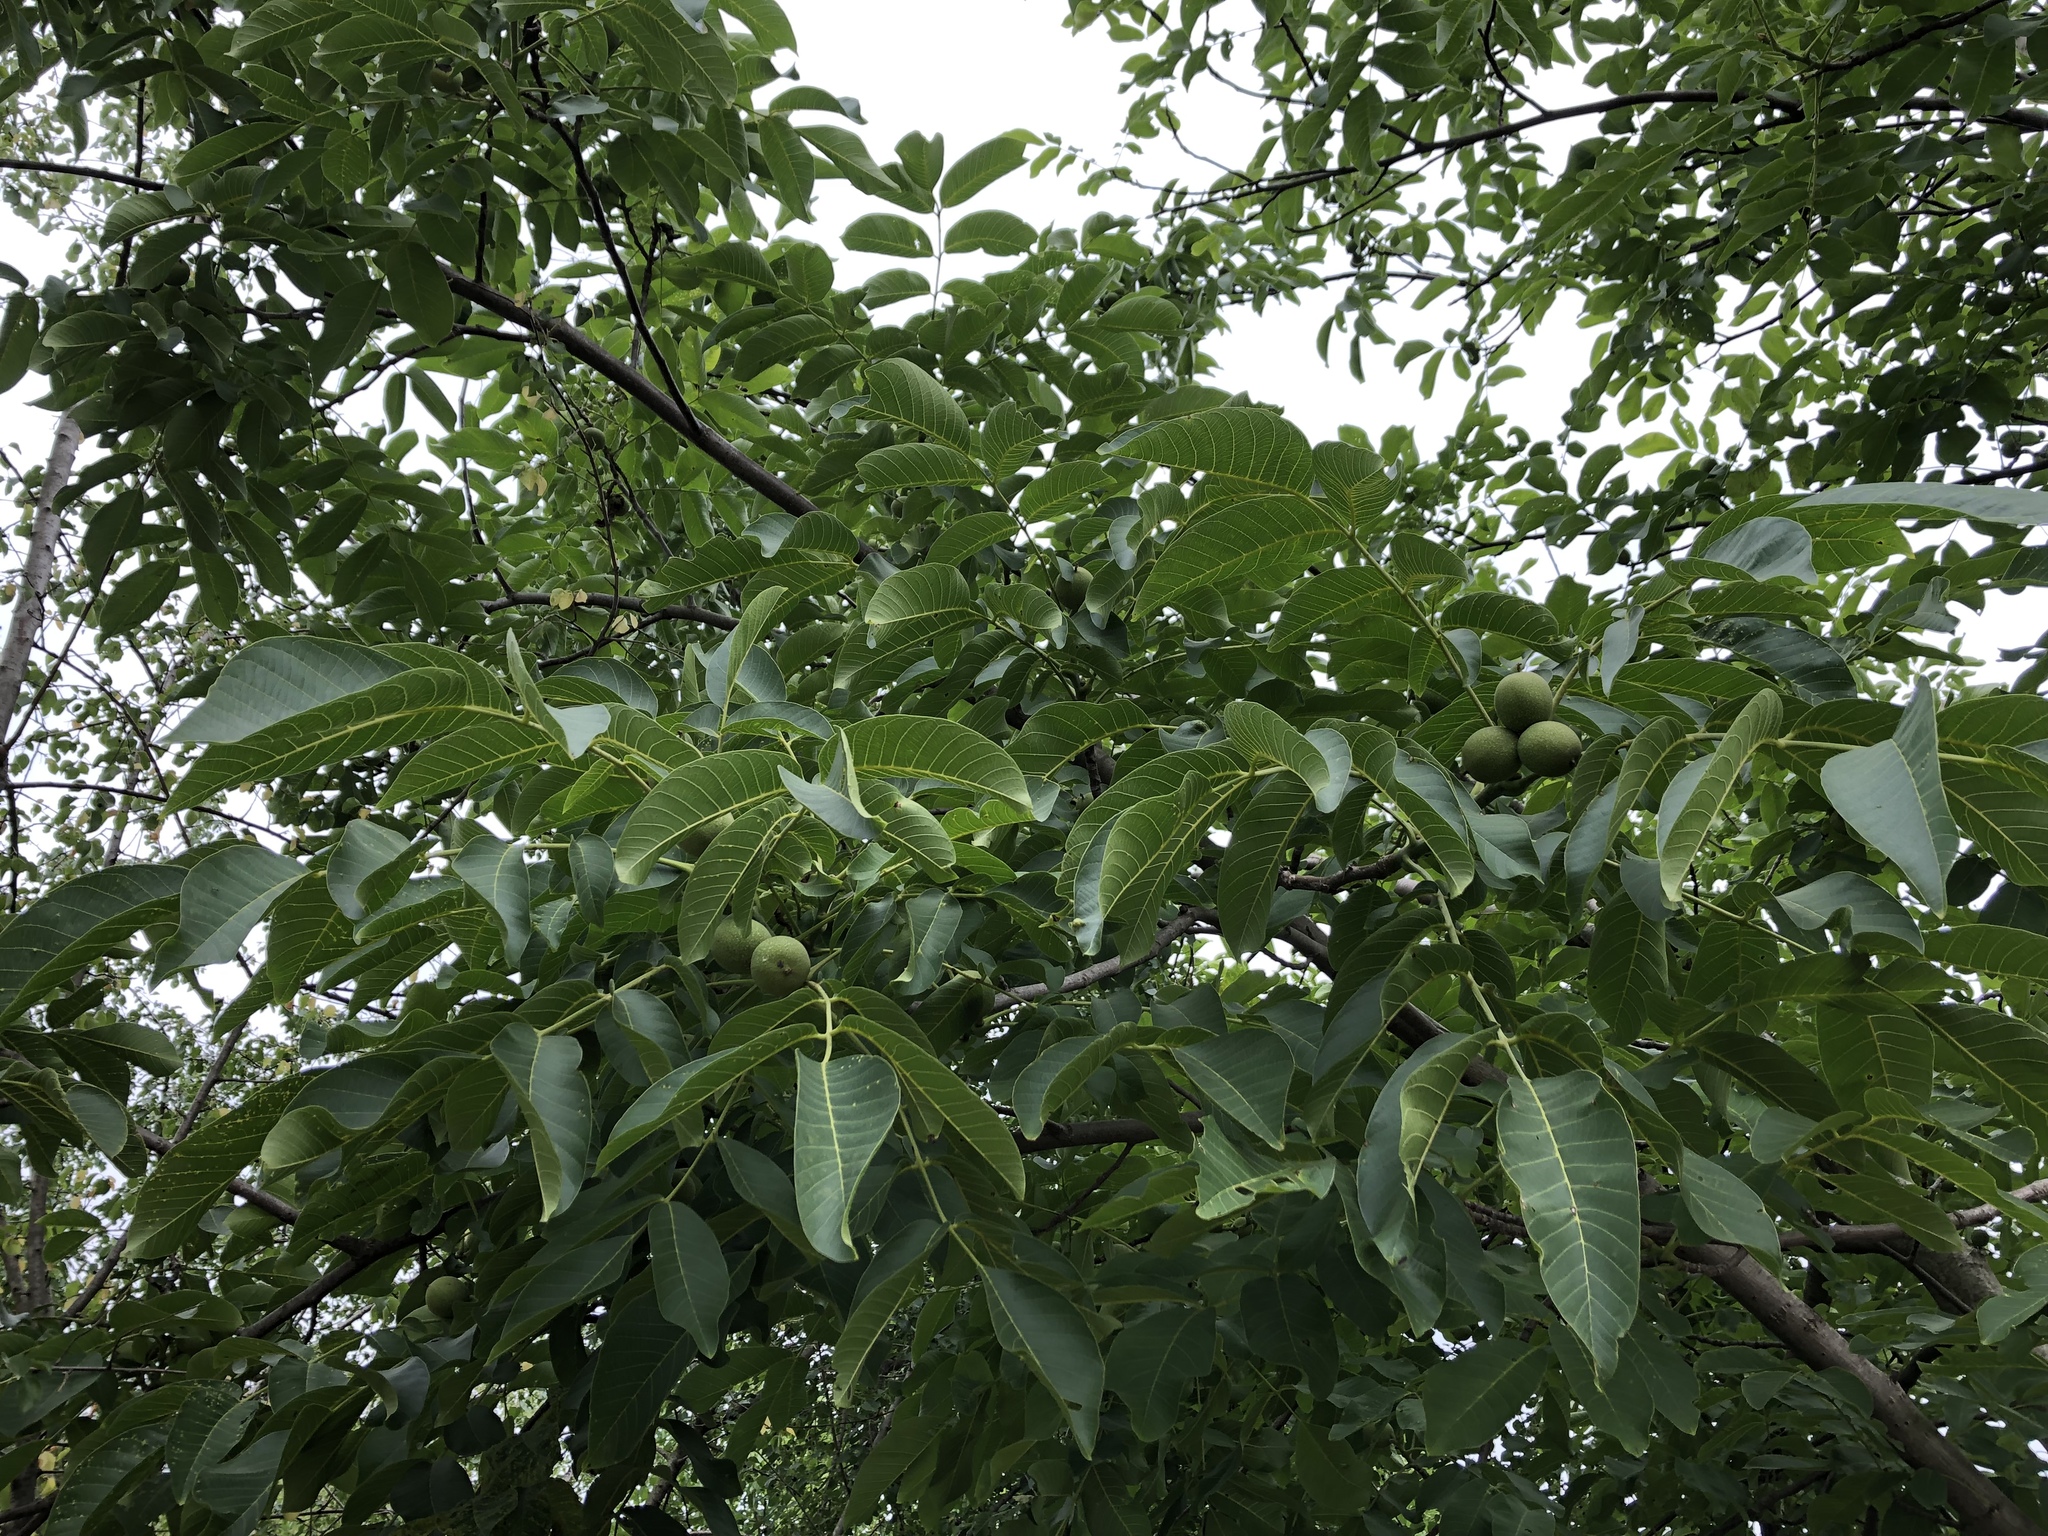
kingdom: Plantae
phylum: Tracheophyta
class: Magnoliopsida
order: Fagales
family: Juglandaceae
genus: Juglans
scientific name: Juglans regia
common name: Walnut
